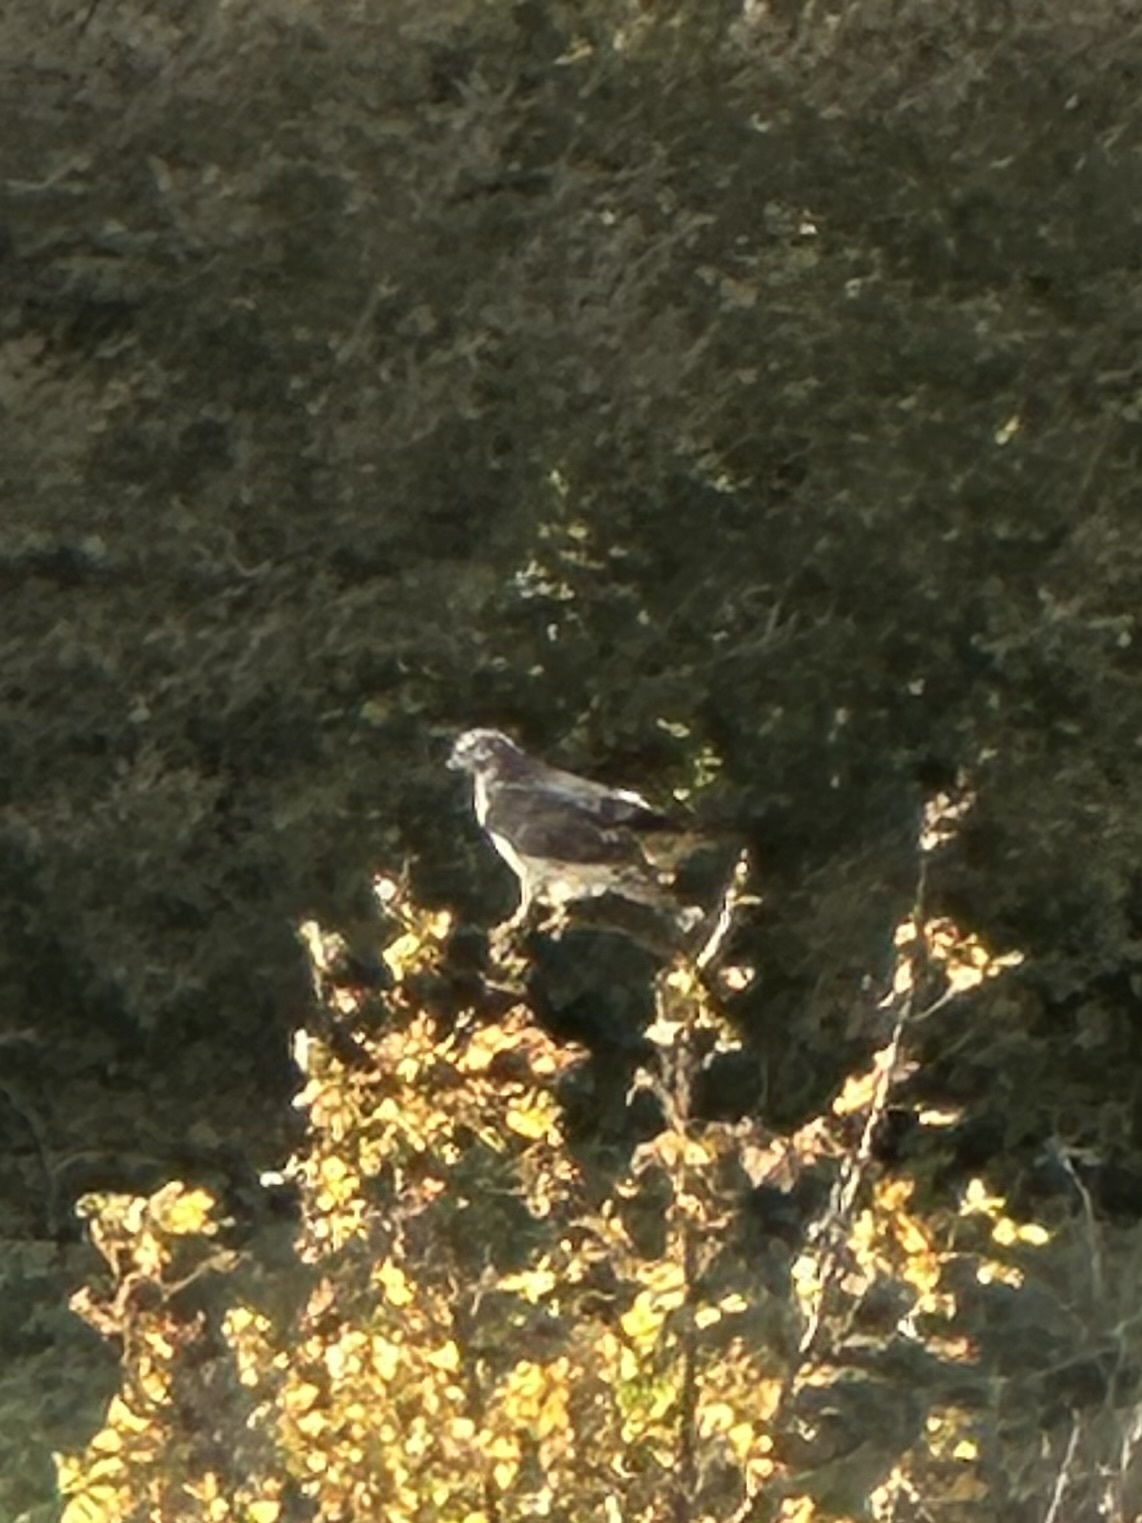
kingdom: Animalia
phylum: Chordata
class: Aves
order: Accipitriformes
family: Accipitridae
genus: Buteo
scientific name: Buteo buteo
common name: Common buzzard
